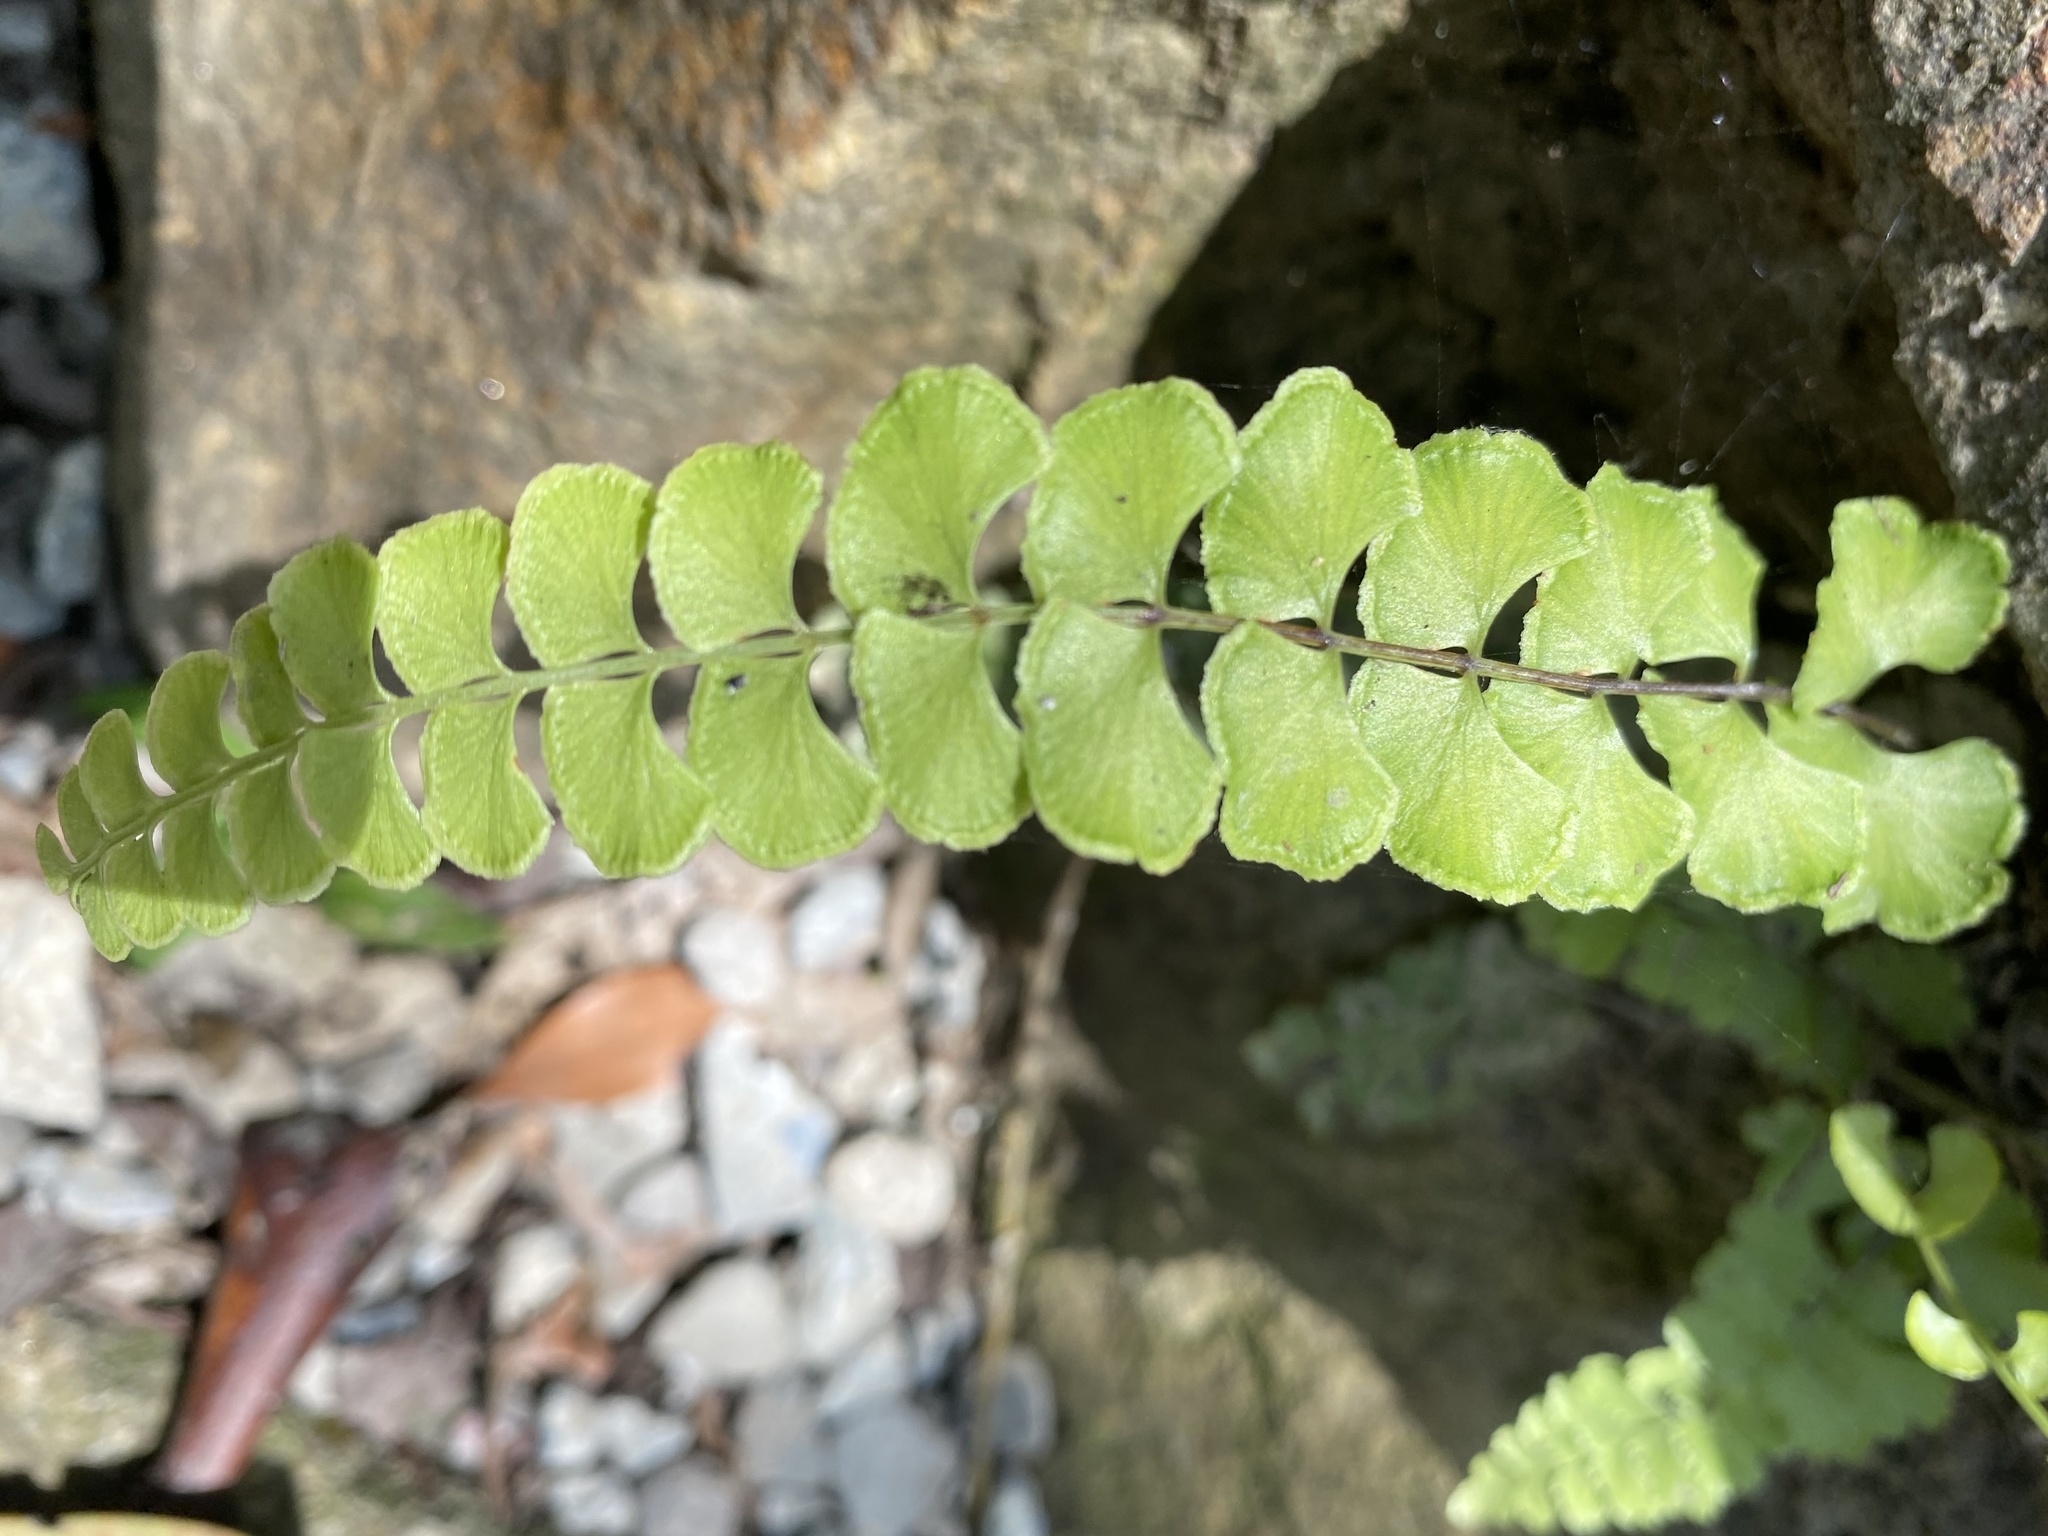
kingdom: Plantae
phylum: Tracheophyta
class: Polypodiopsida
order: Polypodiales
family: Lindsaeaceae
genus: Lindsaea
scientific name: Lindsaea orbiculata
